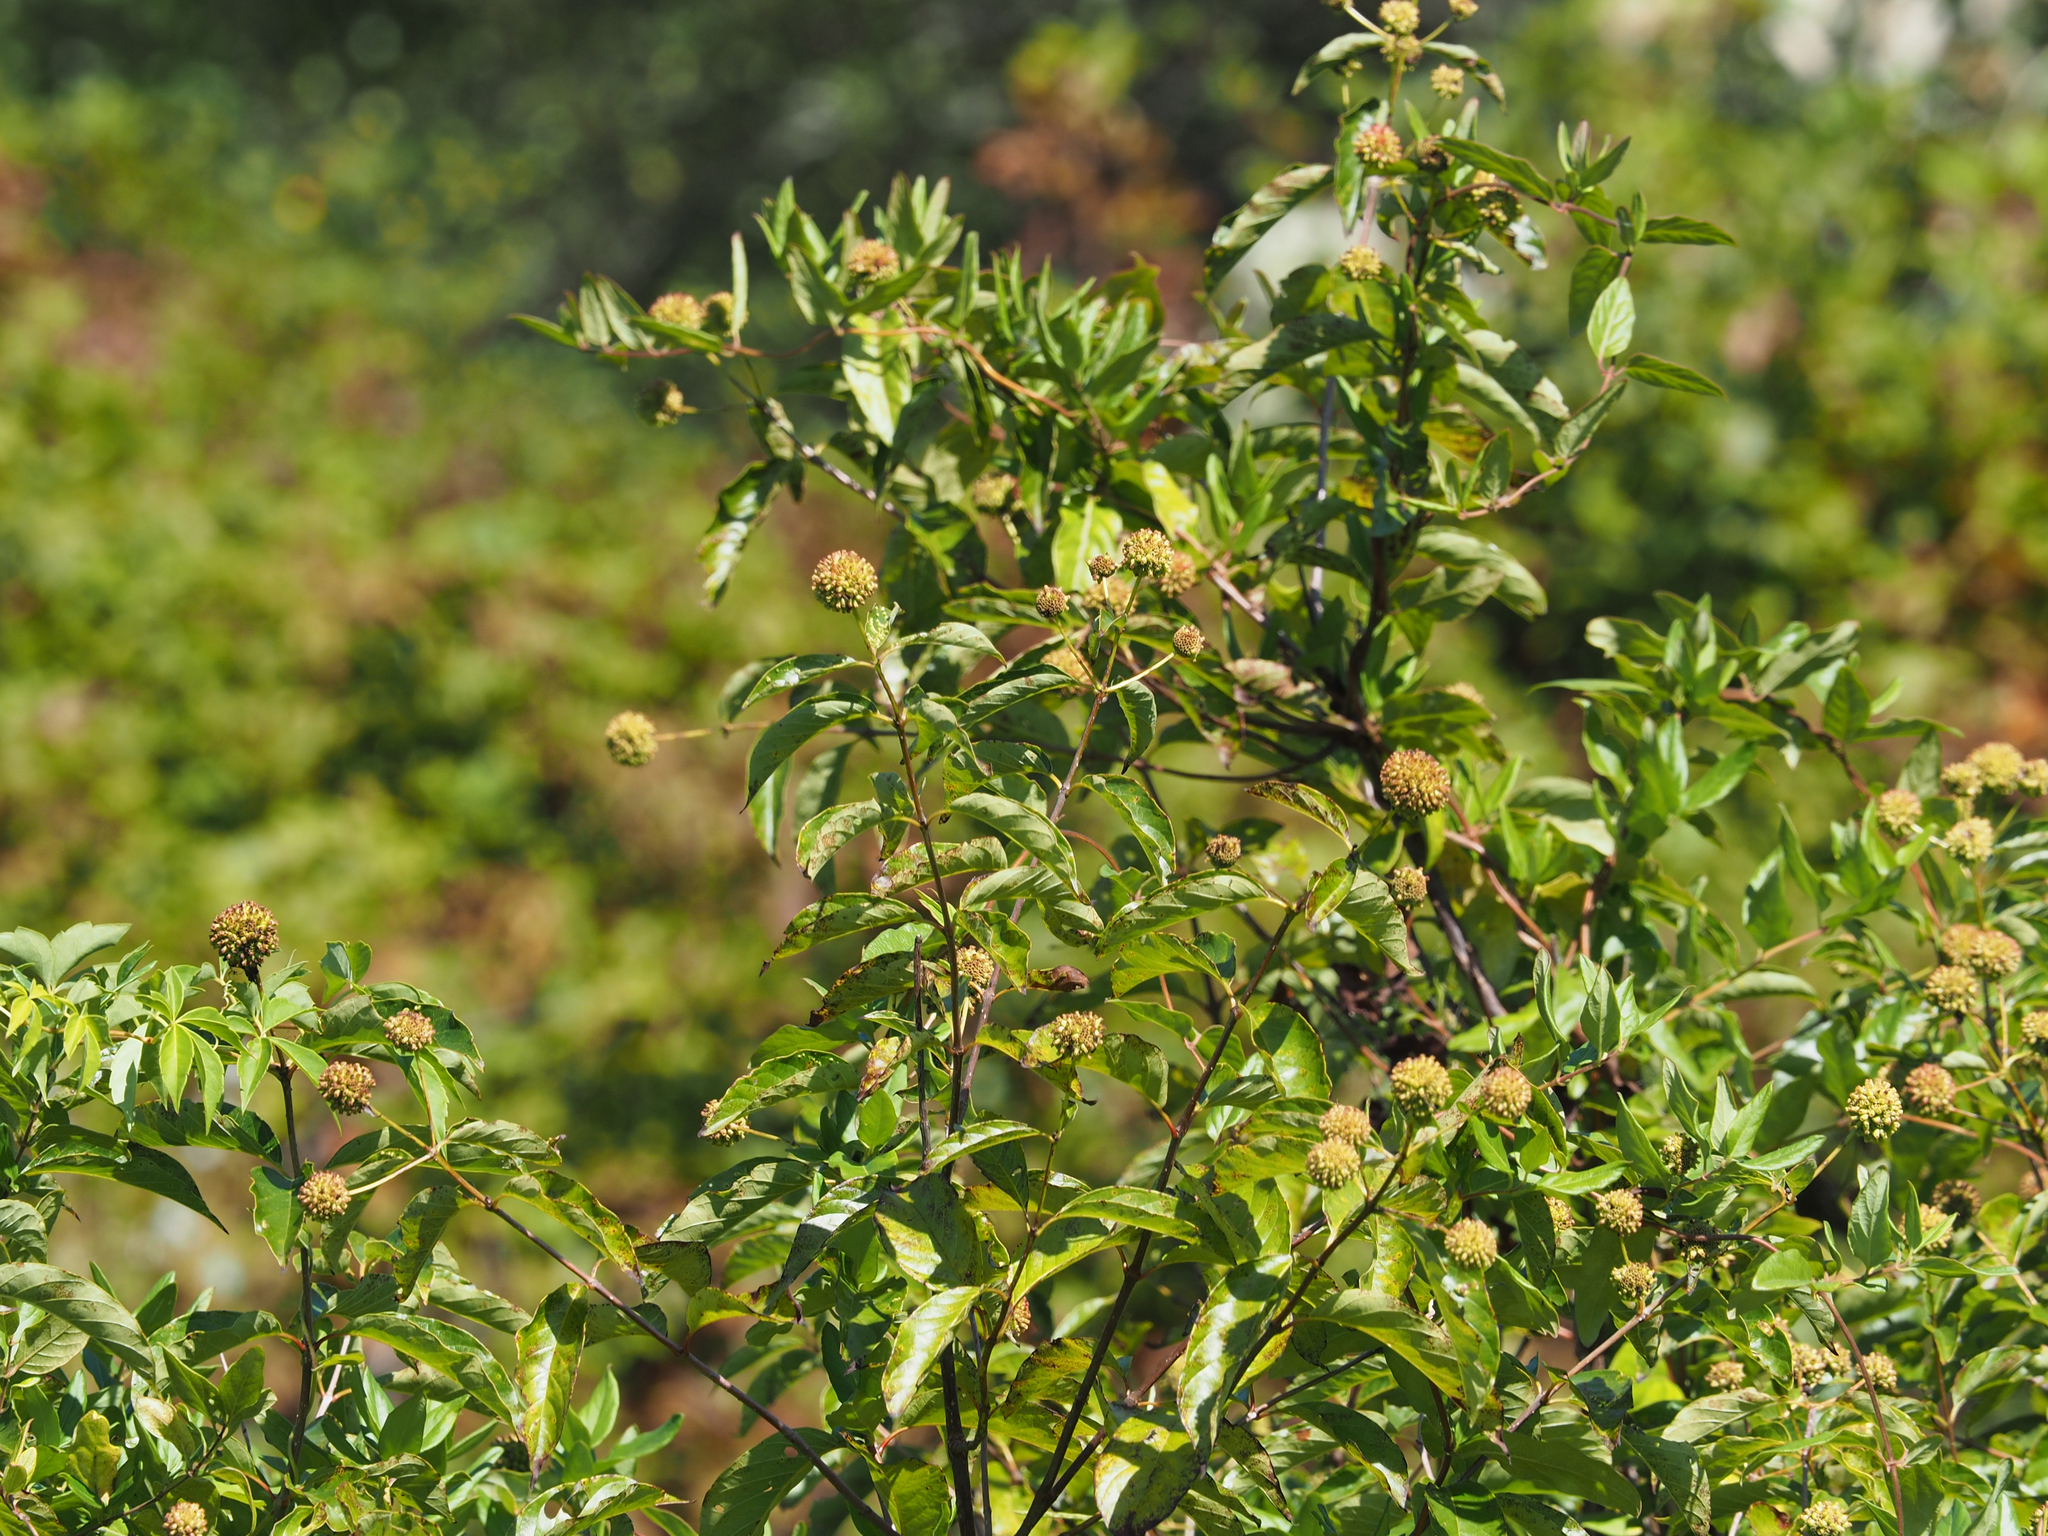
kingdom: Plantae
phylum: Tracheophyta
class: Magnoliopsida
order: Gentianales
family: Rubiaceae
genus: Cephalanthus
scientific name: Cephalanthus occidentalis
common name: Button-willow
